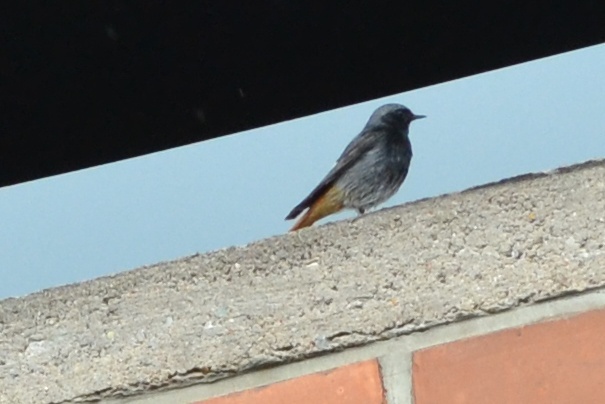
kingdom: Animalia
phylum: Chordata
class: Aves
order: Passeriformes
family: Muscicapidae
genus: Phoenicurus
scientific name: Phoenicurus ochruros
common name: Black redstart
